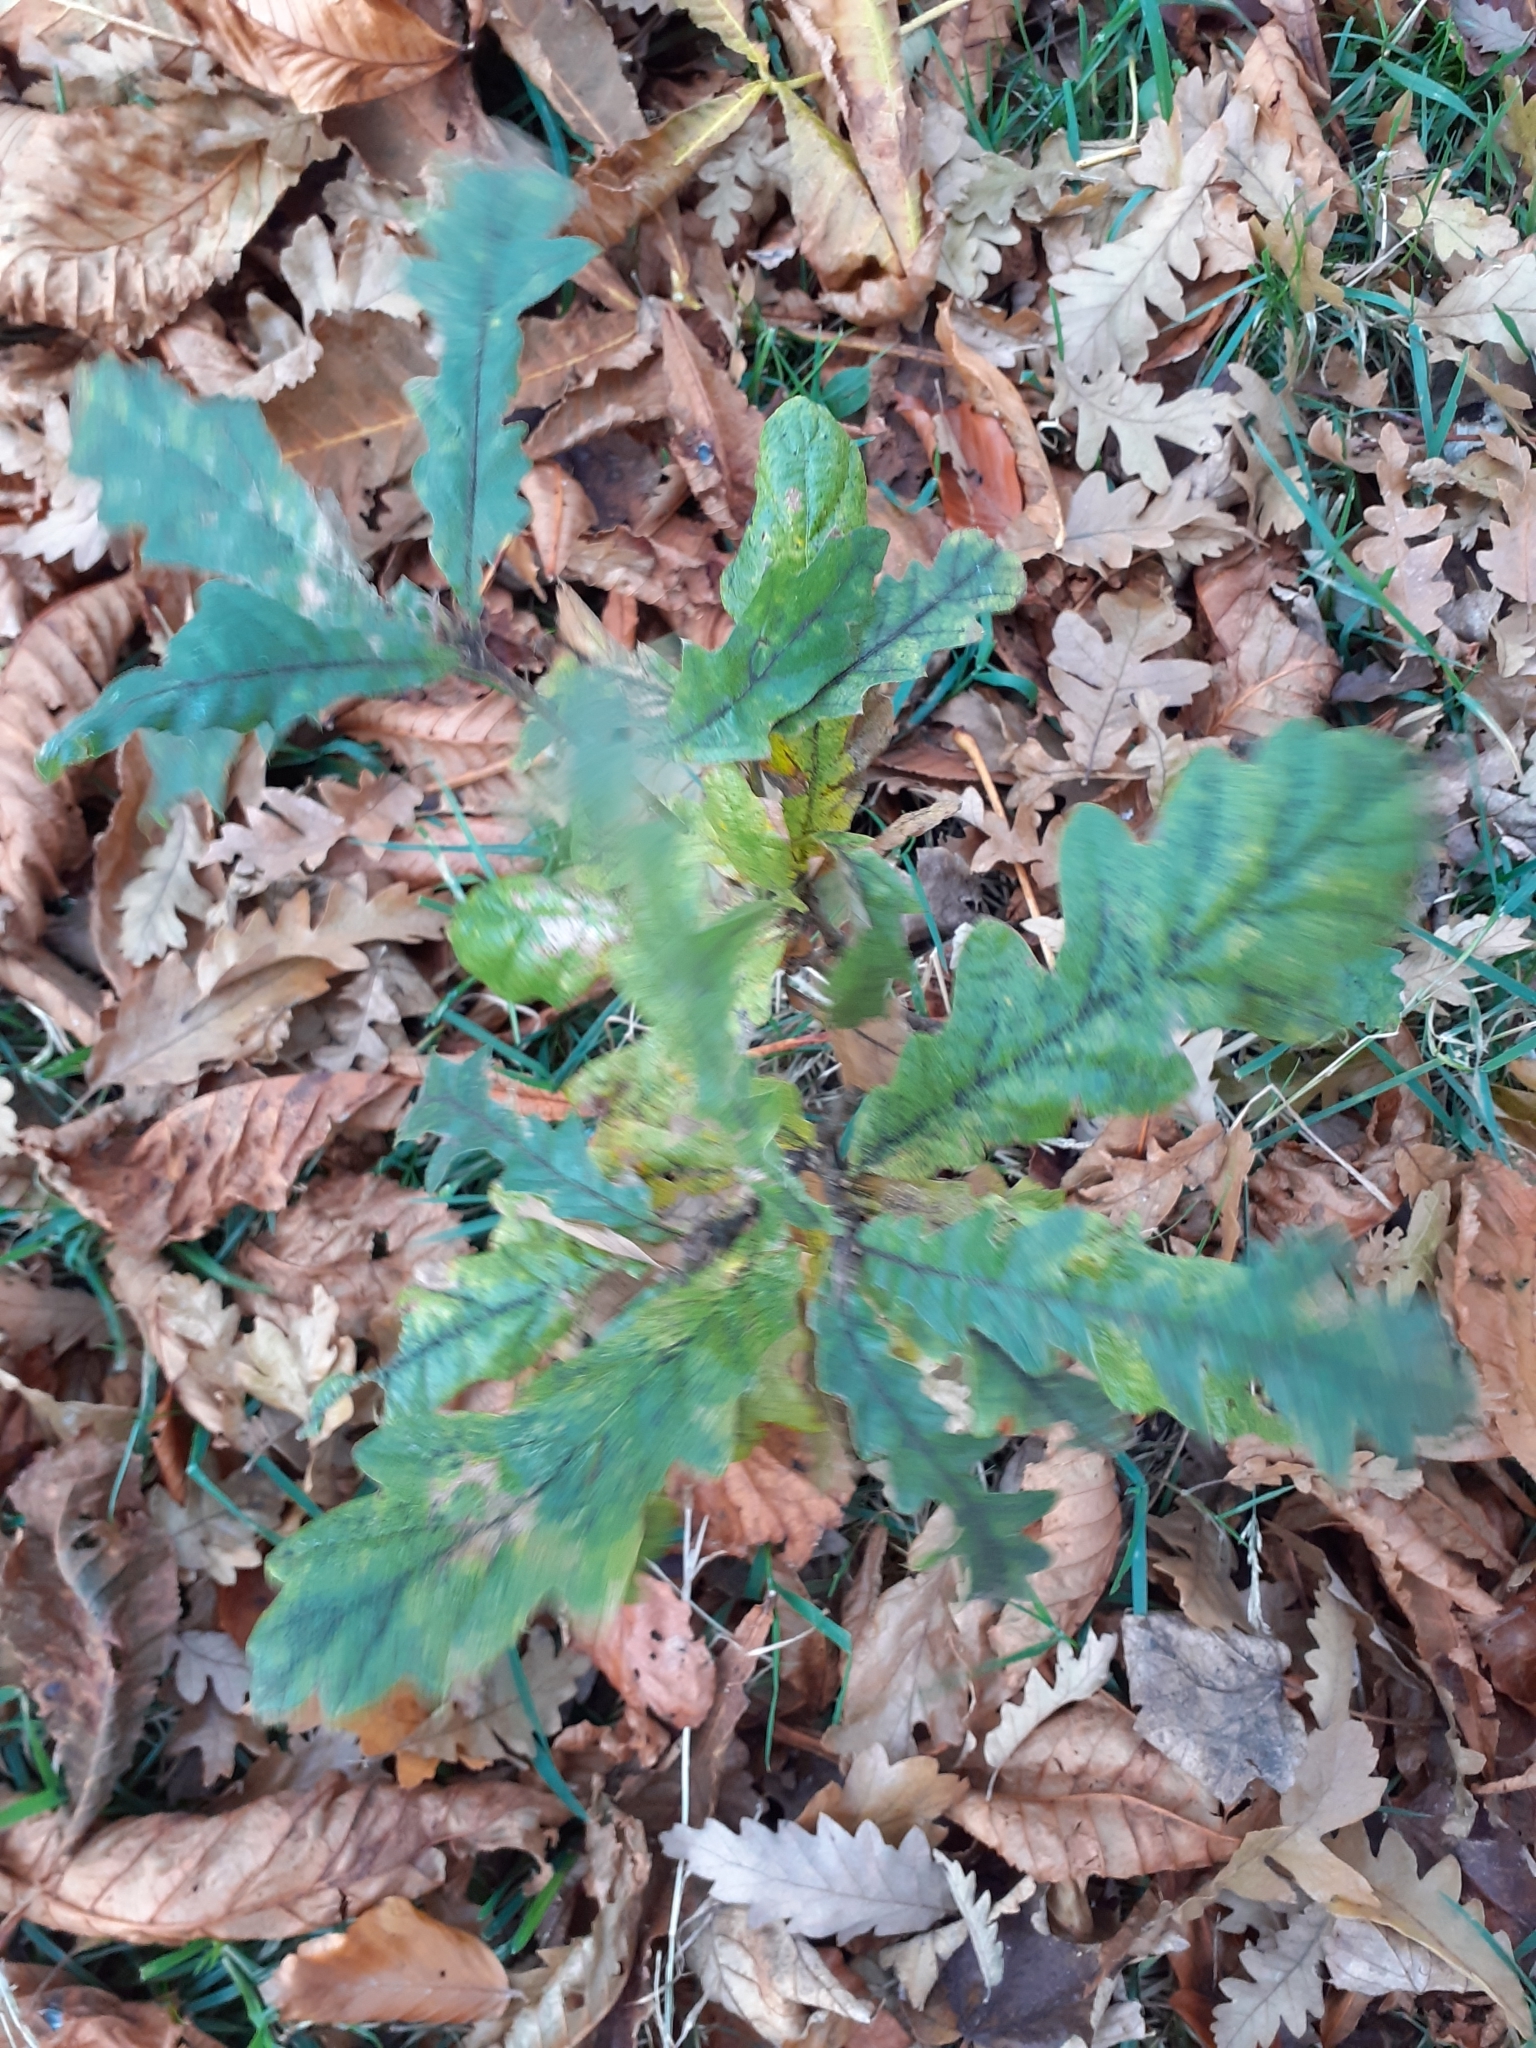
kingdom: Plantae
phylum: Tracheophyta
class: Magnoliopsida
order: Fagales
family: Fagaceae
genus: Quercus
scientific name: Quercus cerris
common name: Turkey oak
